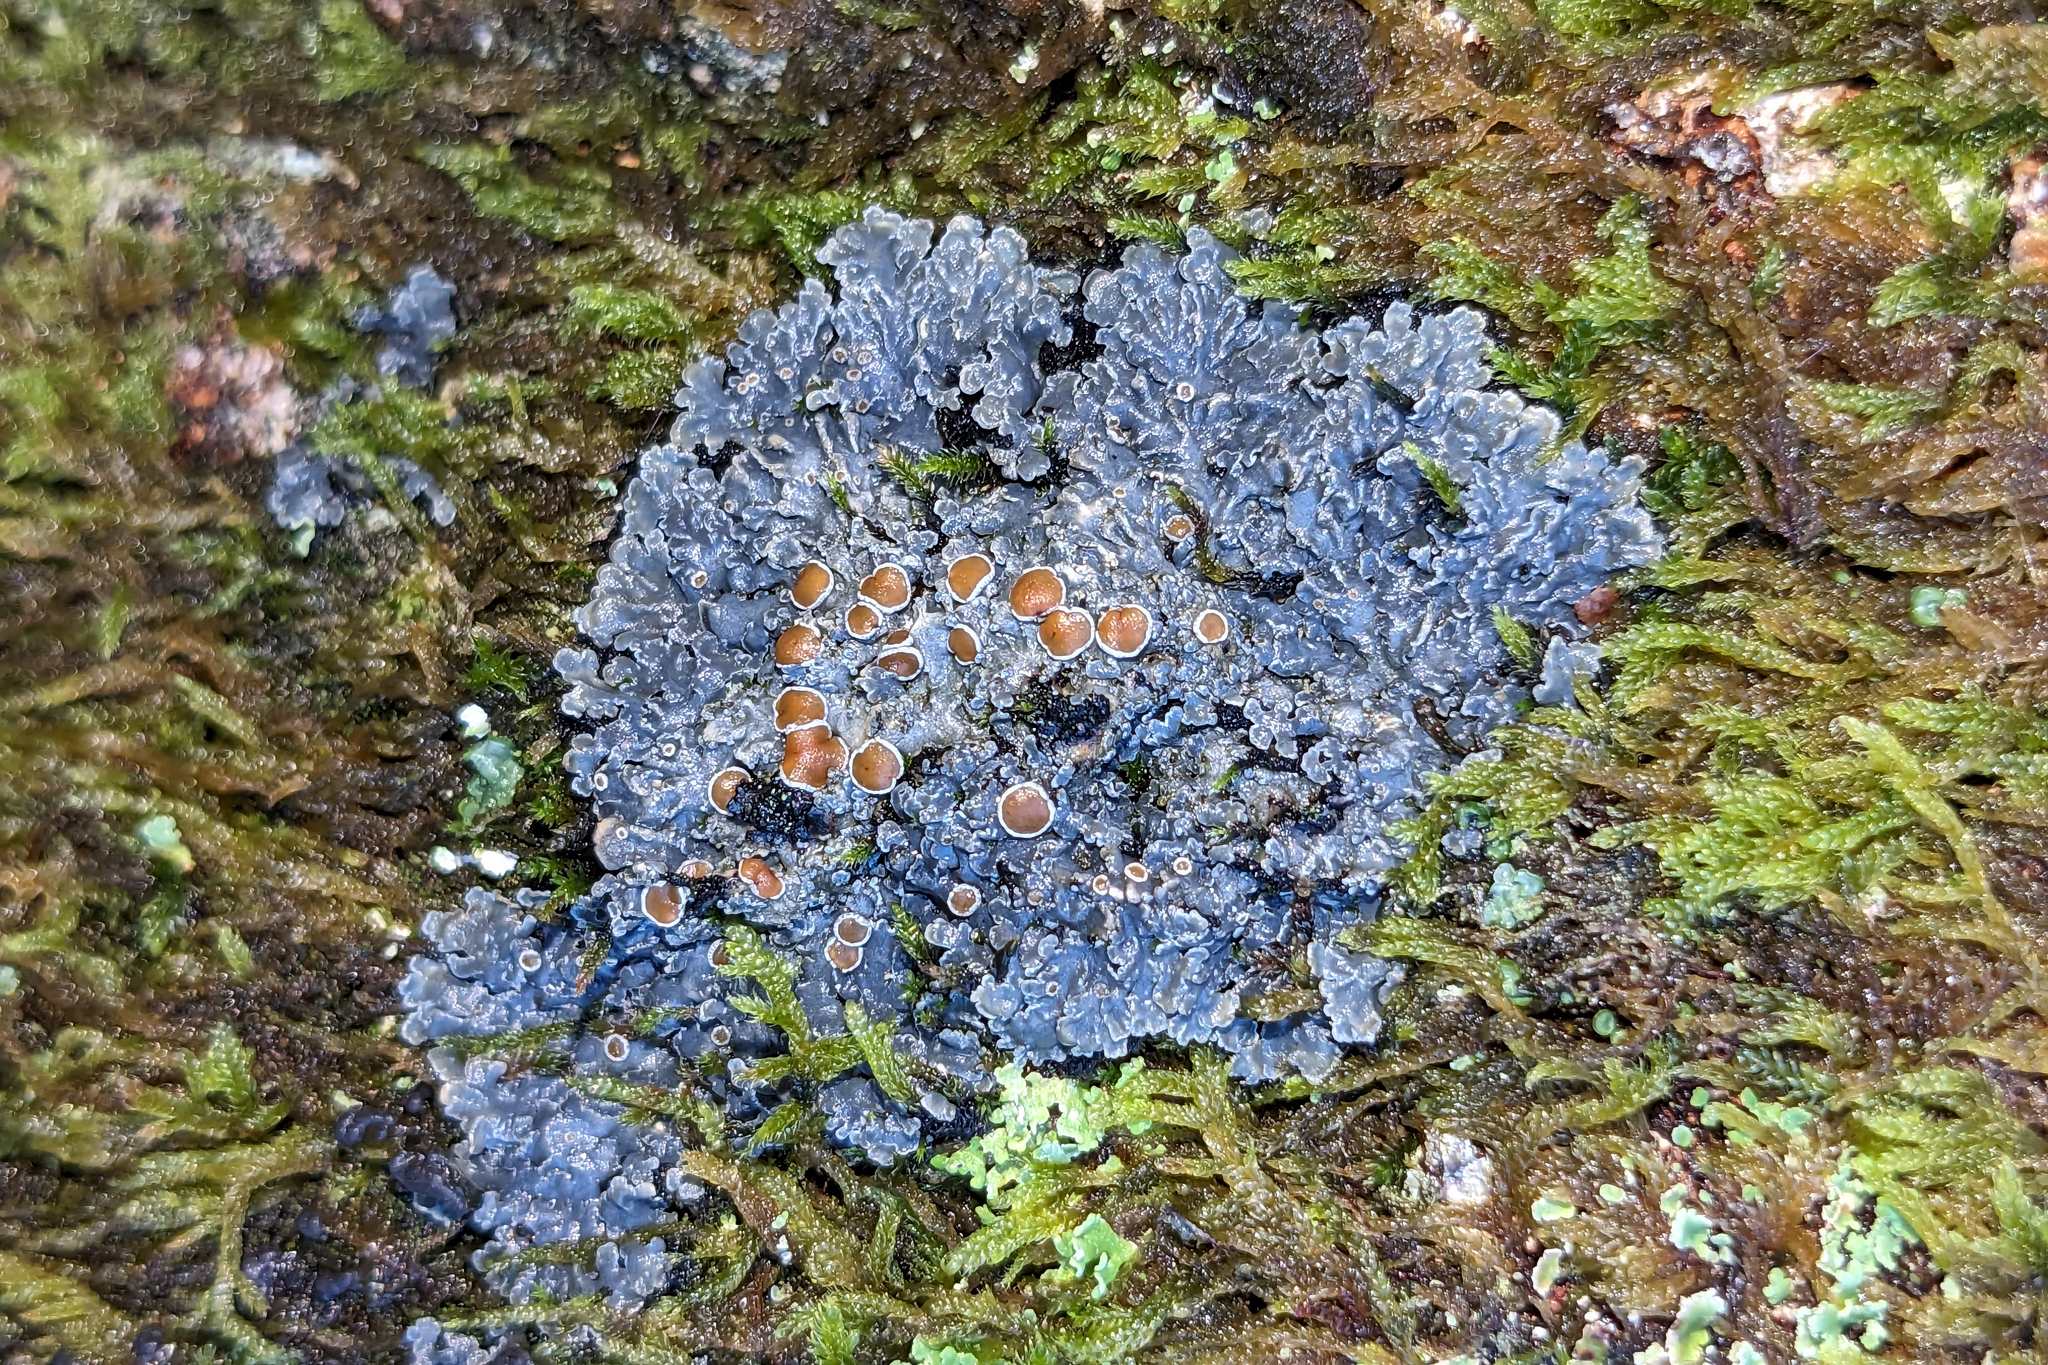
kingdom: Fungi
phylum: Ascomycota
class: Lecanoromycetes
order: Peltigerales
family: Pannariaceae
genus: Pannaria
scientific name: Pannaria rubiginosa
